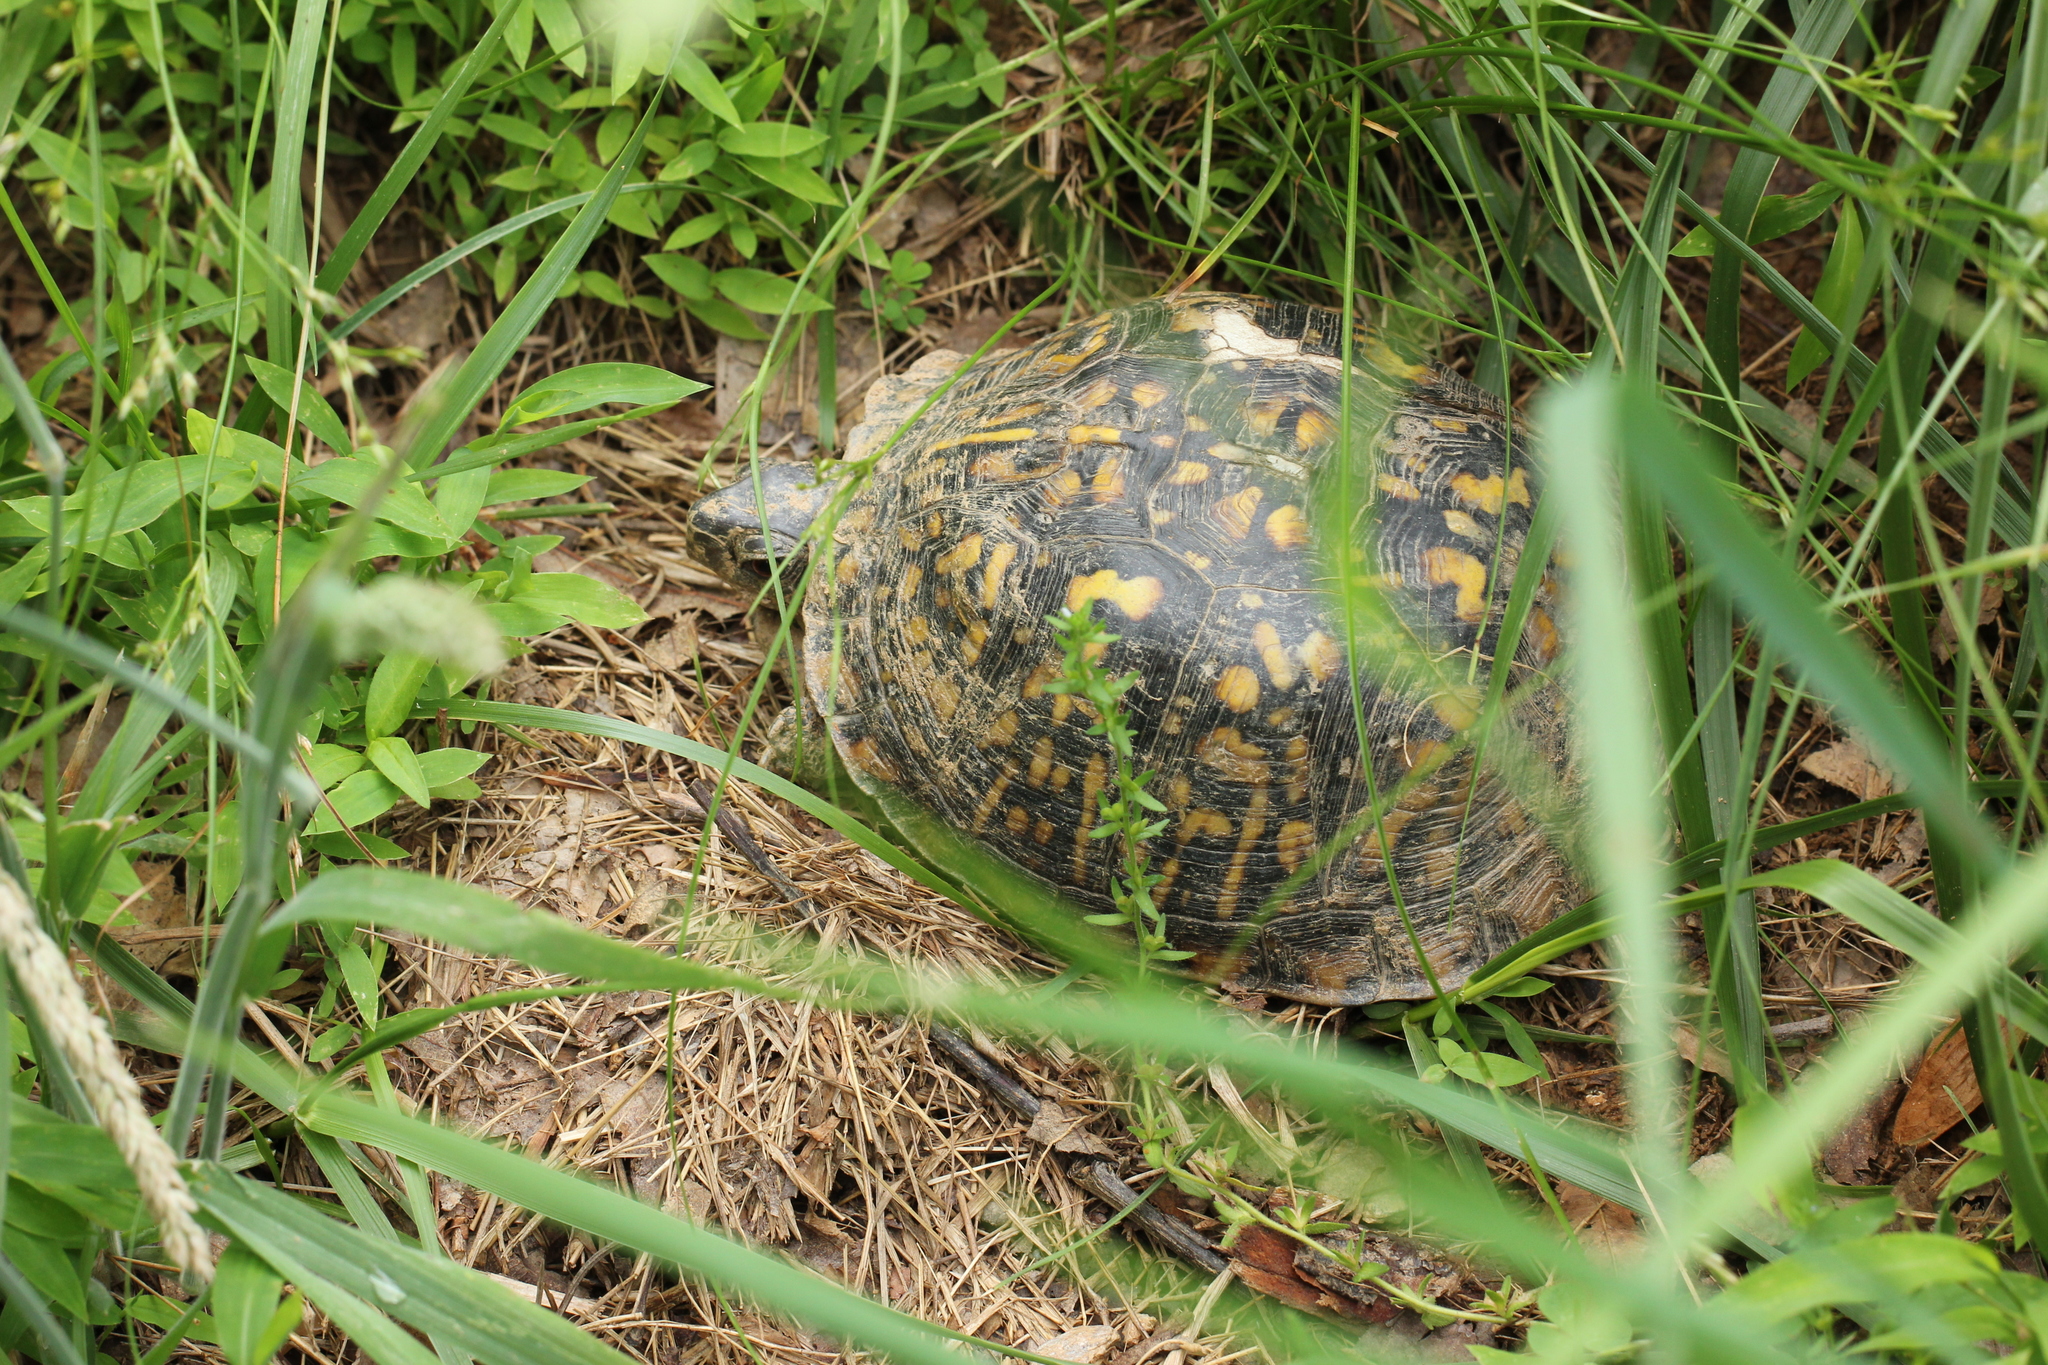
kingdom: Animalia
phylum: Chordata
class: Testudines
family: Emydidae
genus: Terrapene
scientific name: Terrapene carolina
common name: Common box turtle
